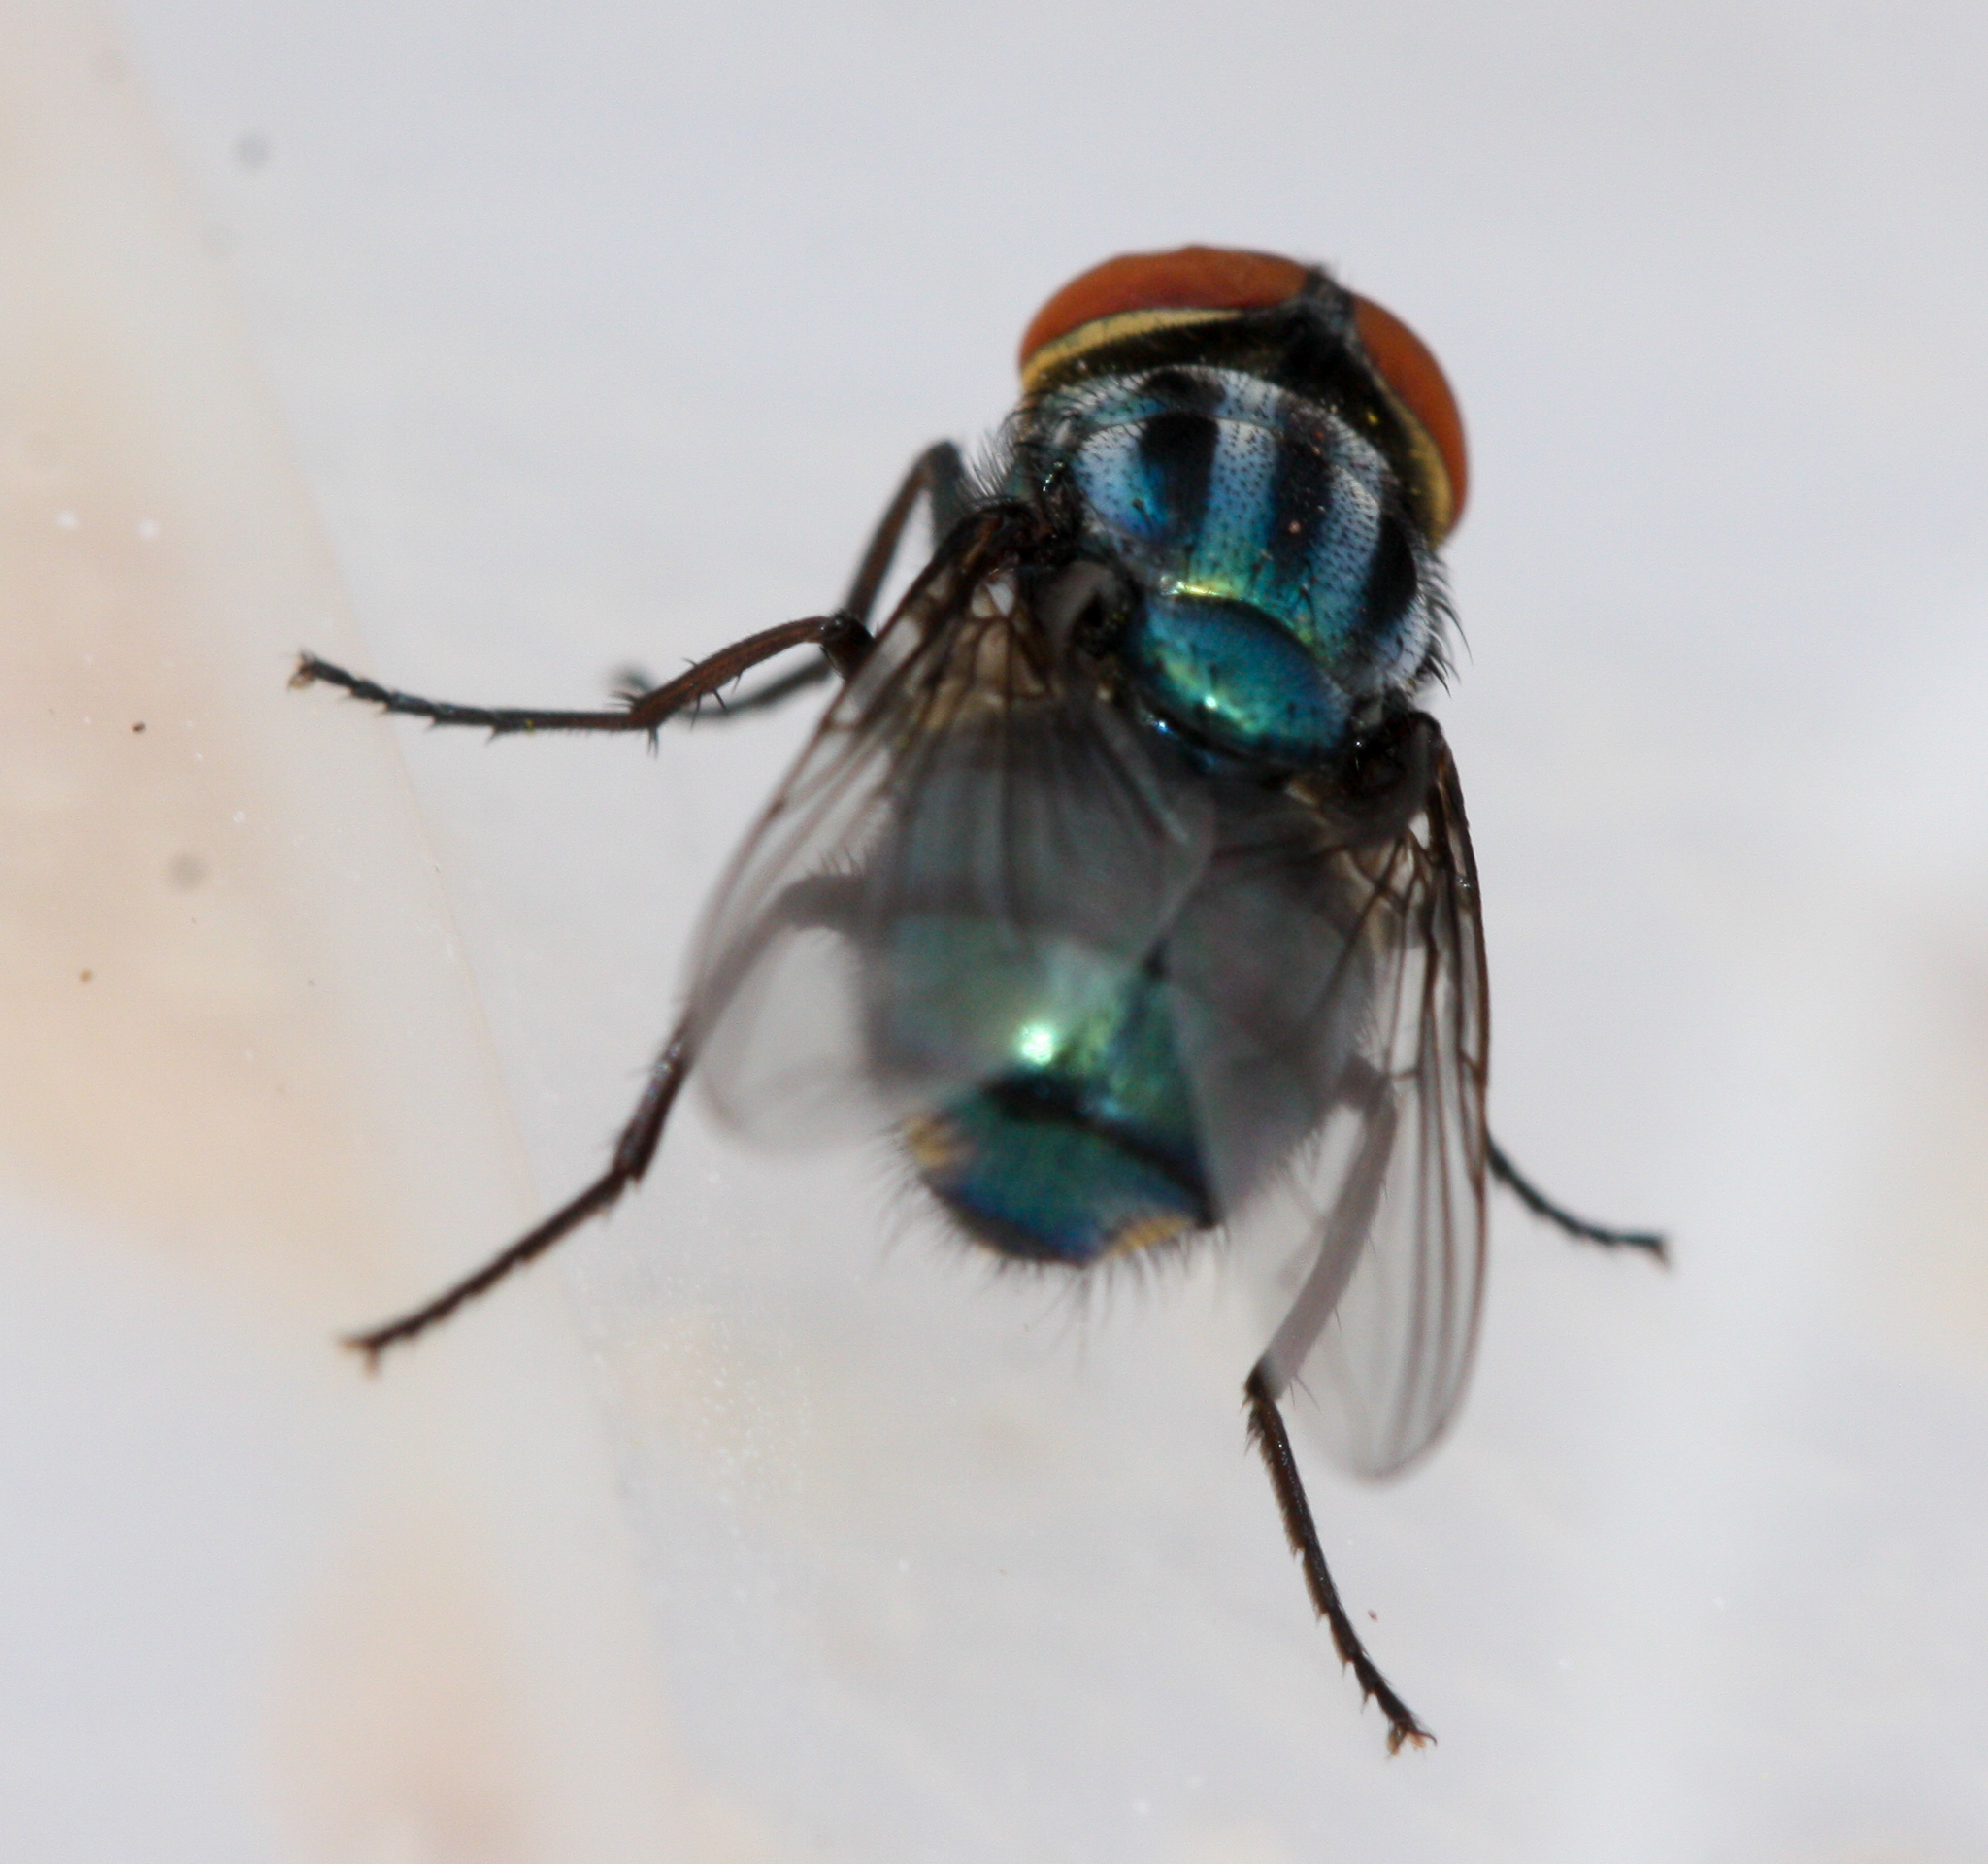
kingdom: Animalia
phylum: Arthropoda
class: Insecta
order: Diptera
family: Calliphoridae
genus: Cochliomyia
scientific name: Cochliomyia macellaria
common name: Secondary screwworm
